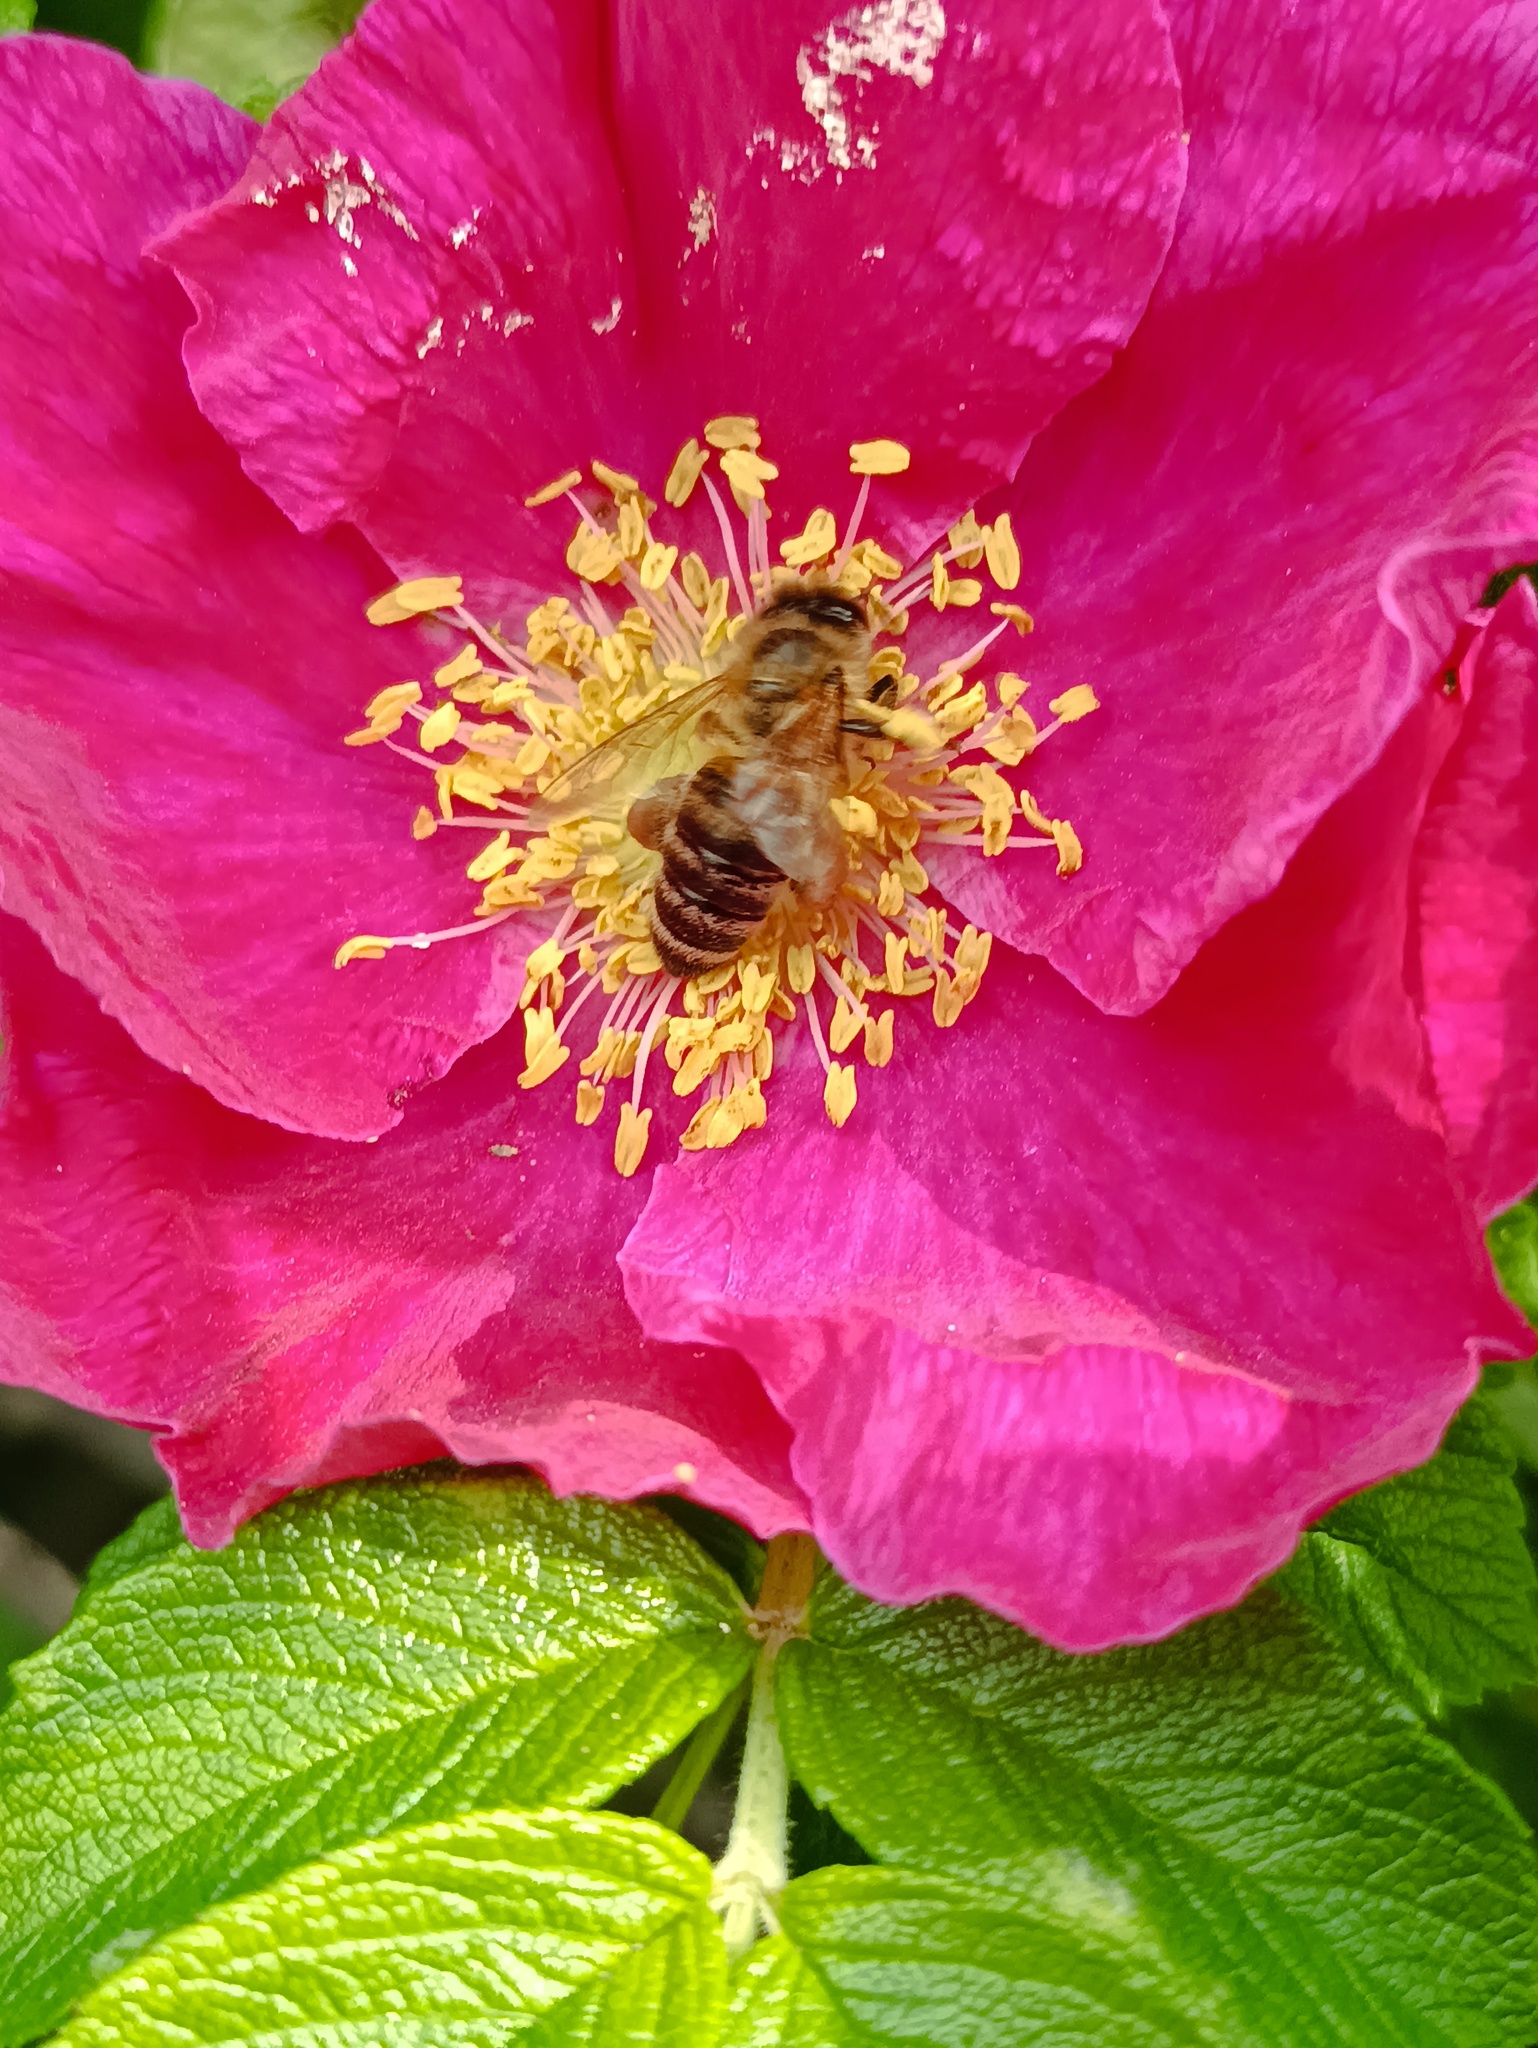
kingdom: Animalia
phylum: Arthropoda
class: Insecta
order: Hymenoptera
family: Apidae
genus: Apis
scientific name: Apis mellifera
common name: Honey bee
